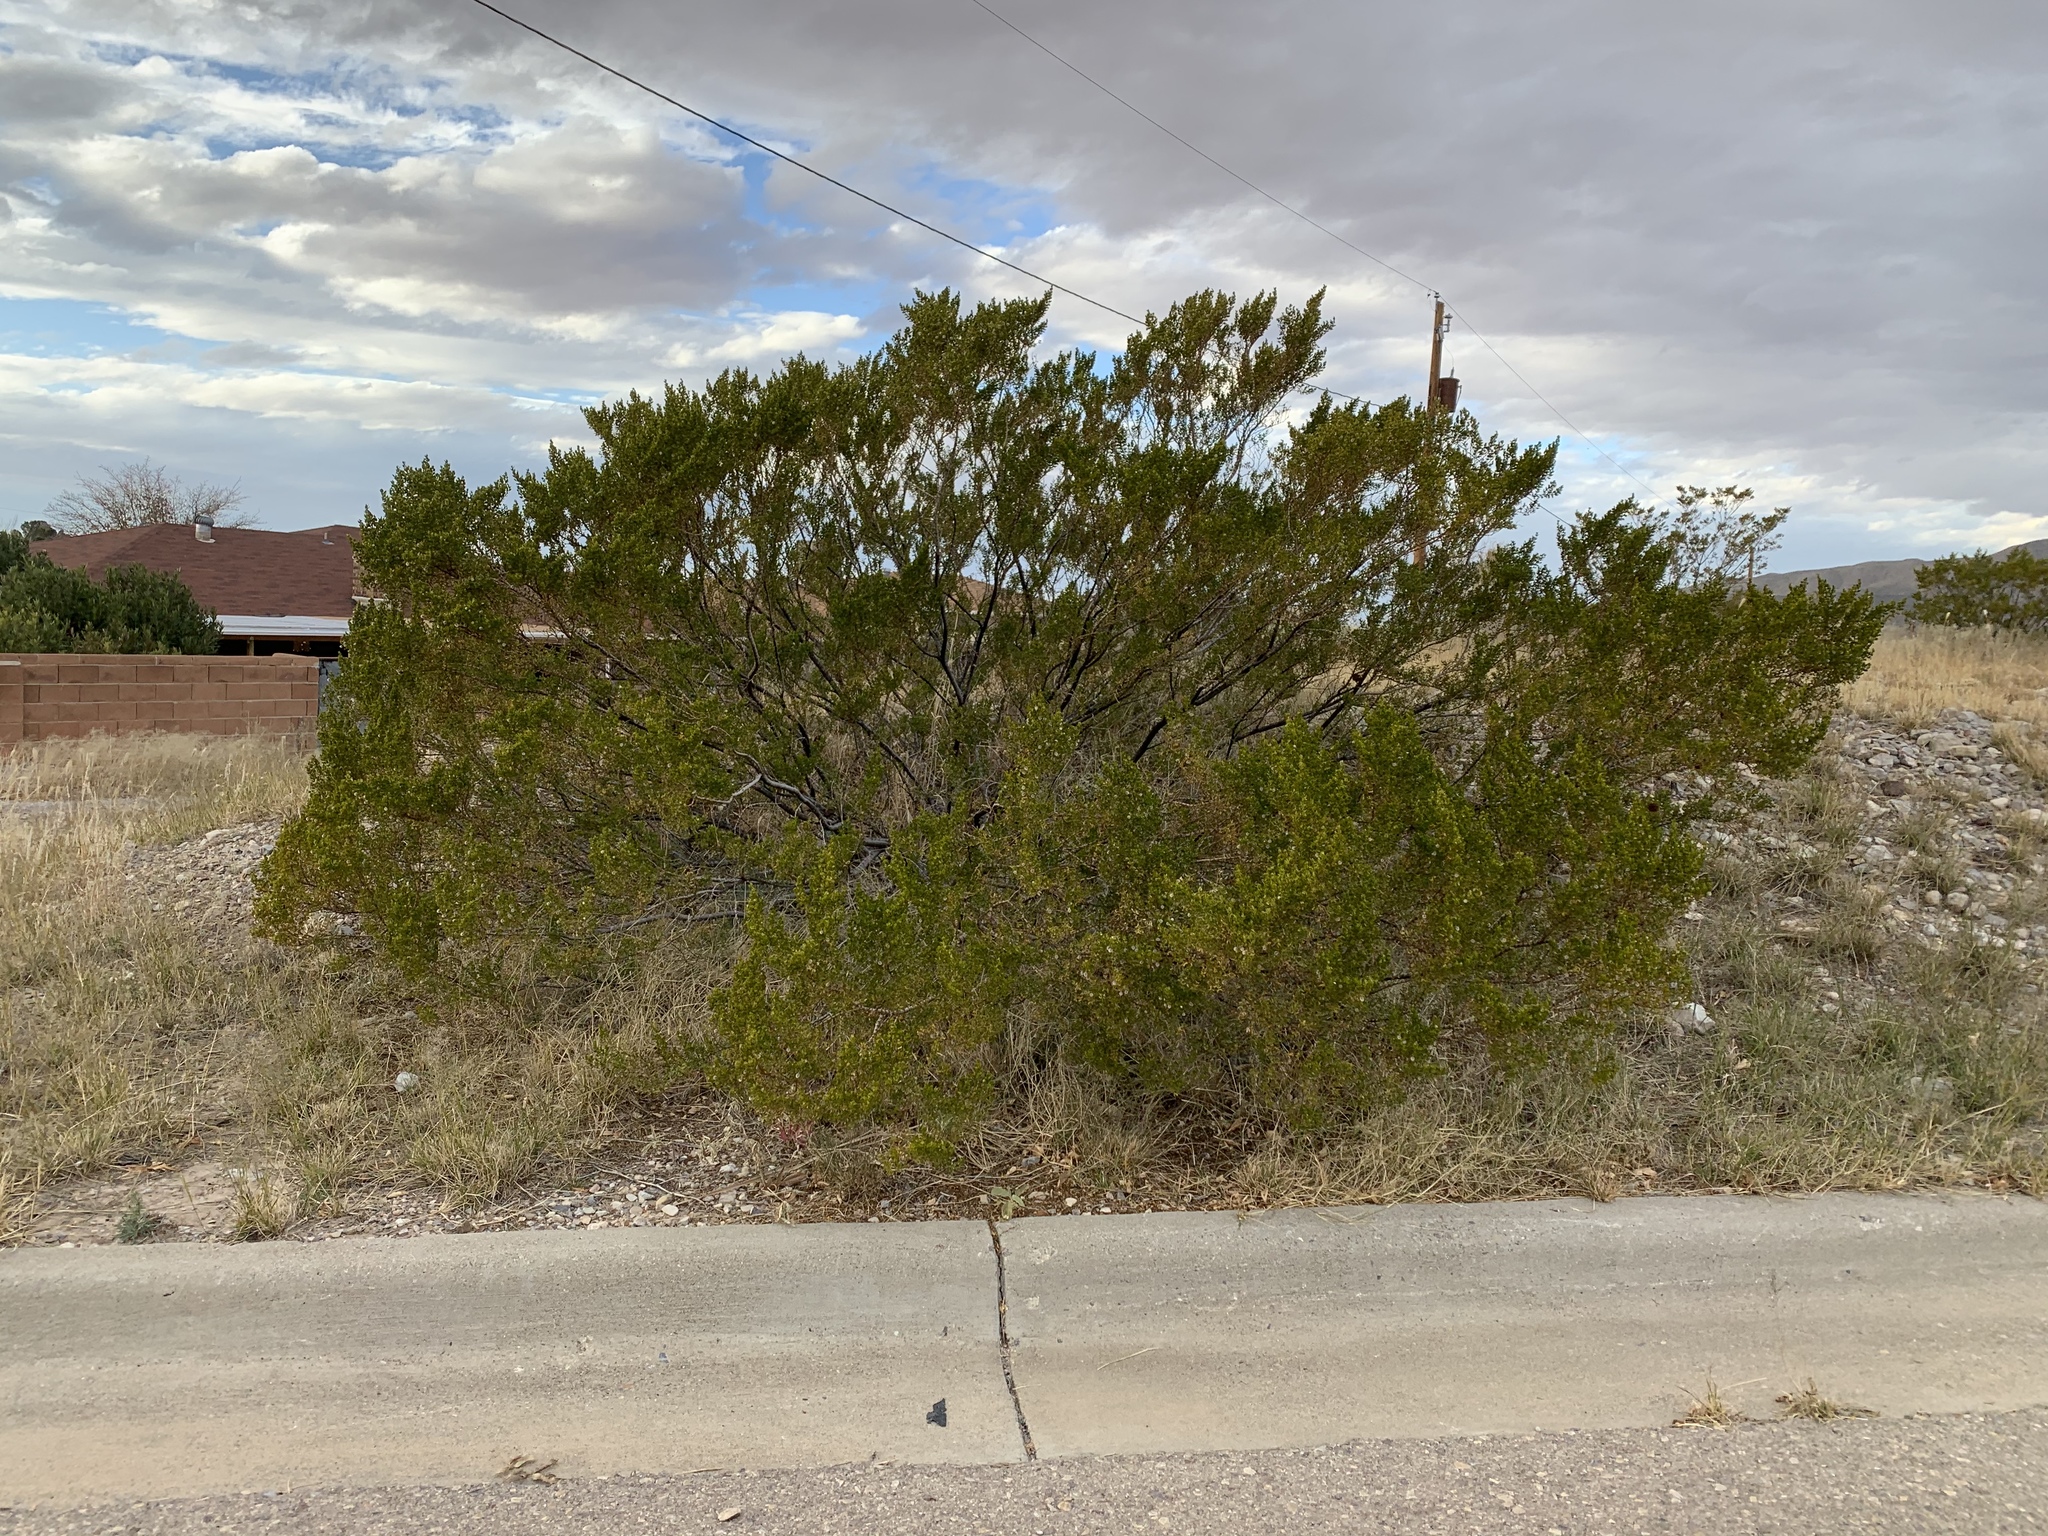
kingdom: Plantae
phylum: Tracheophyta
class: Magnoliopsida
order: Zygophyllales
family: Zygophyllaceae
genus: Larrea
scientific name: Larrea tridentata
